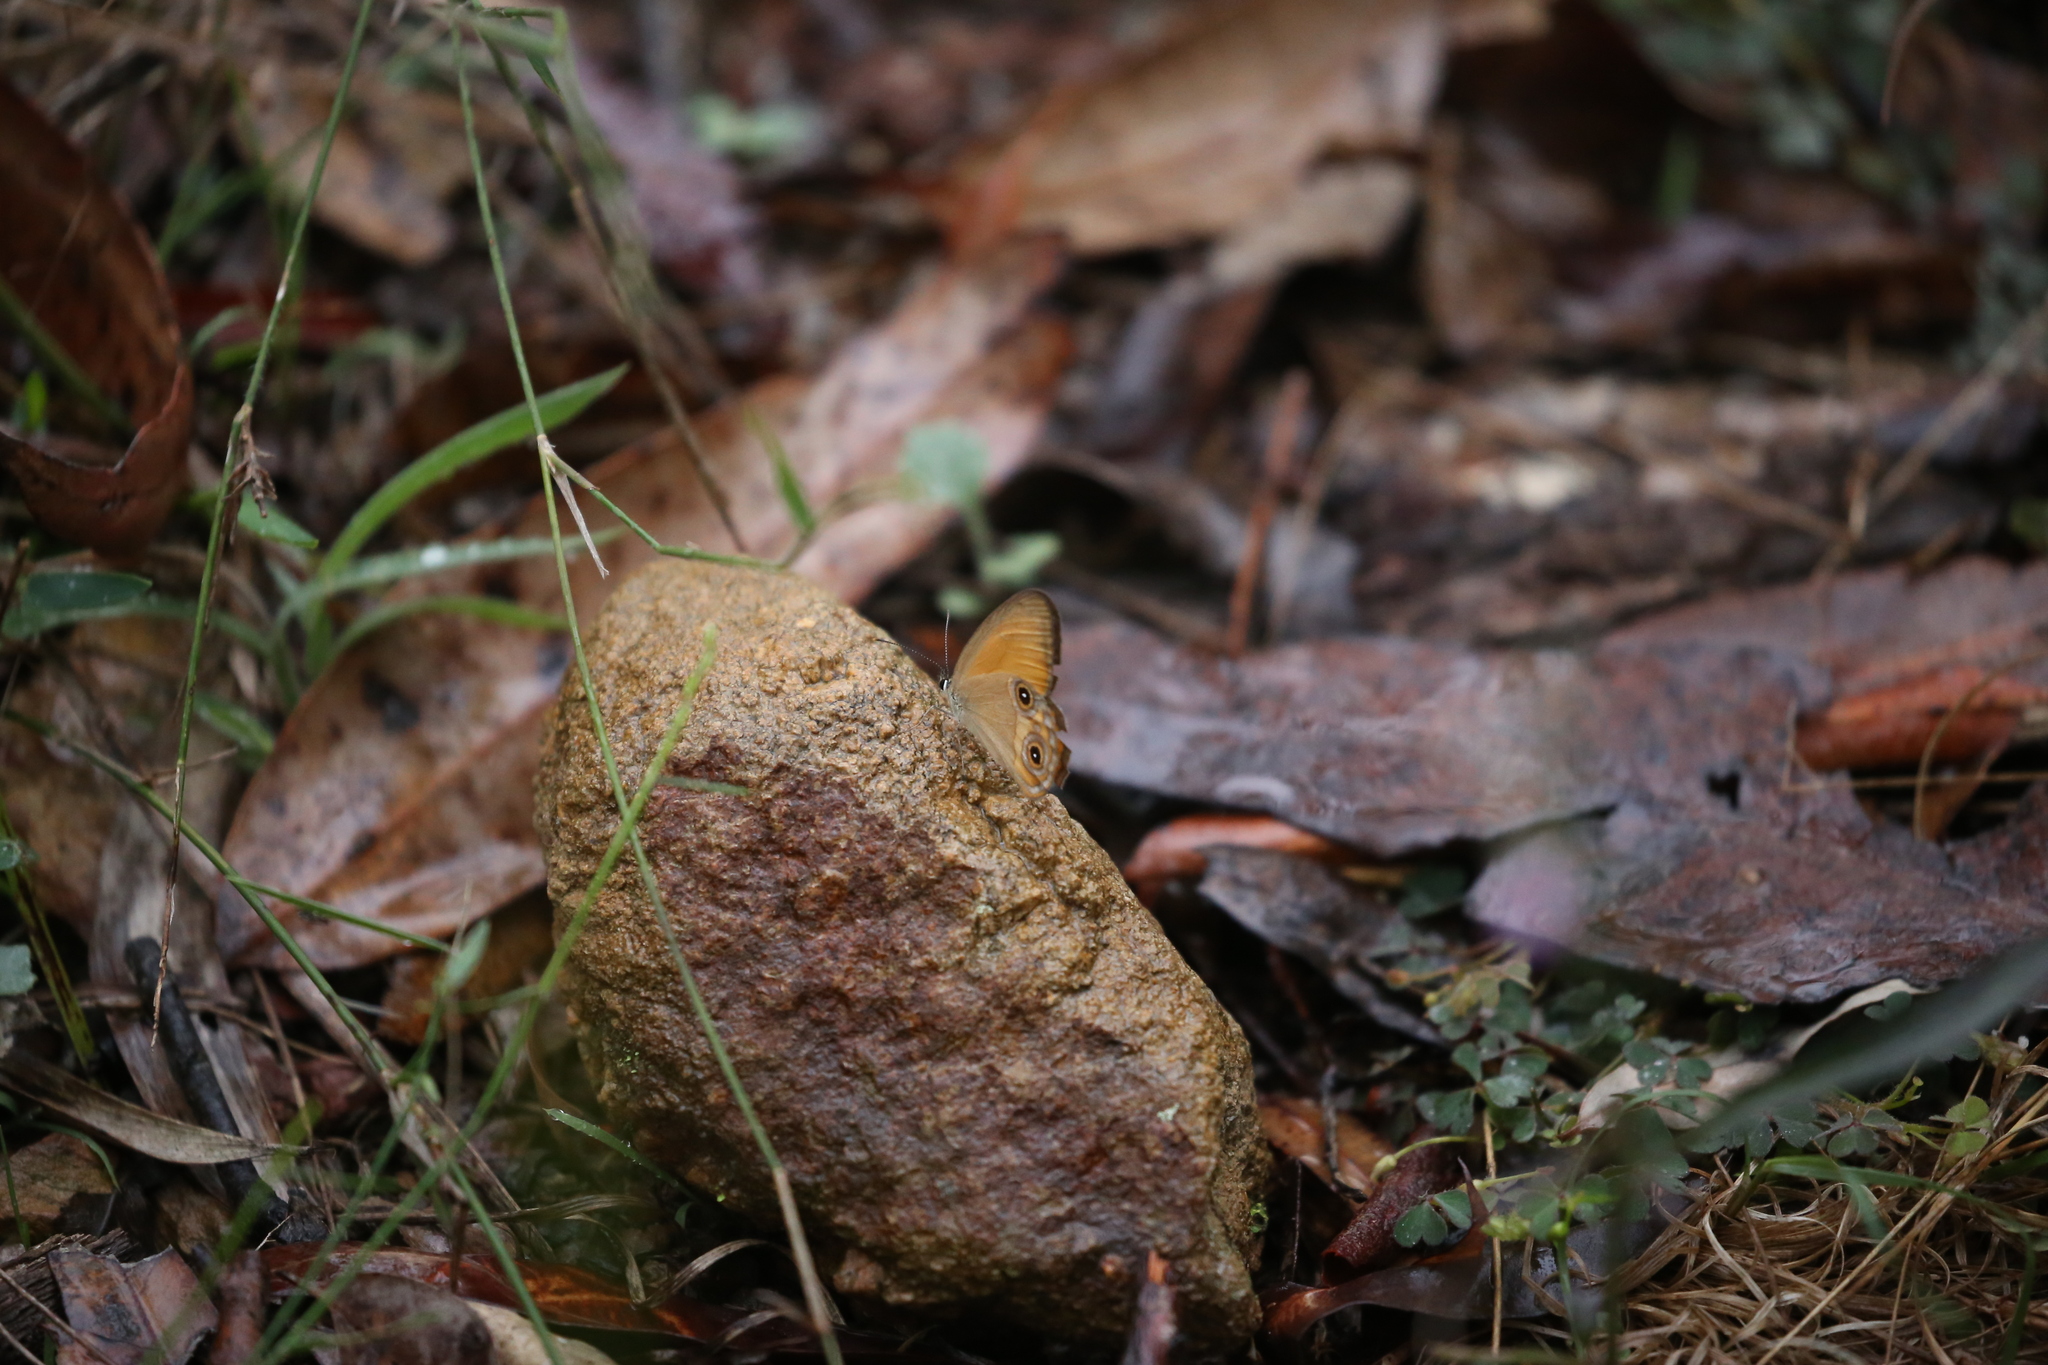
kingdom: Animalia
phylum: Arthropoda
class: Insecta
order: Lepidoptera
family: Nymphalidae
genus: Hypocysta
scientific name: Hypocysta adiante
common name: Orange ringlet
